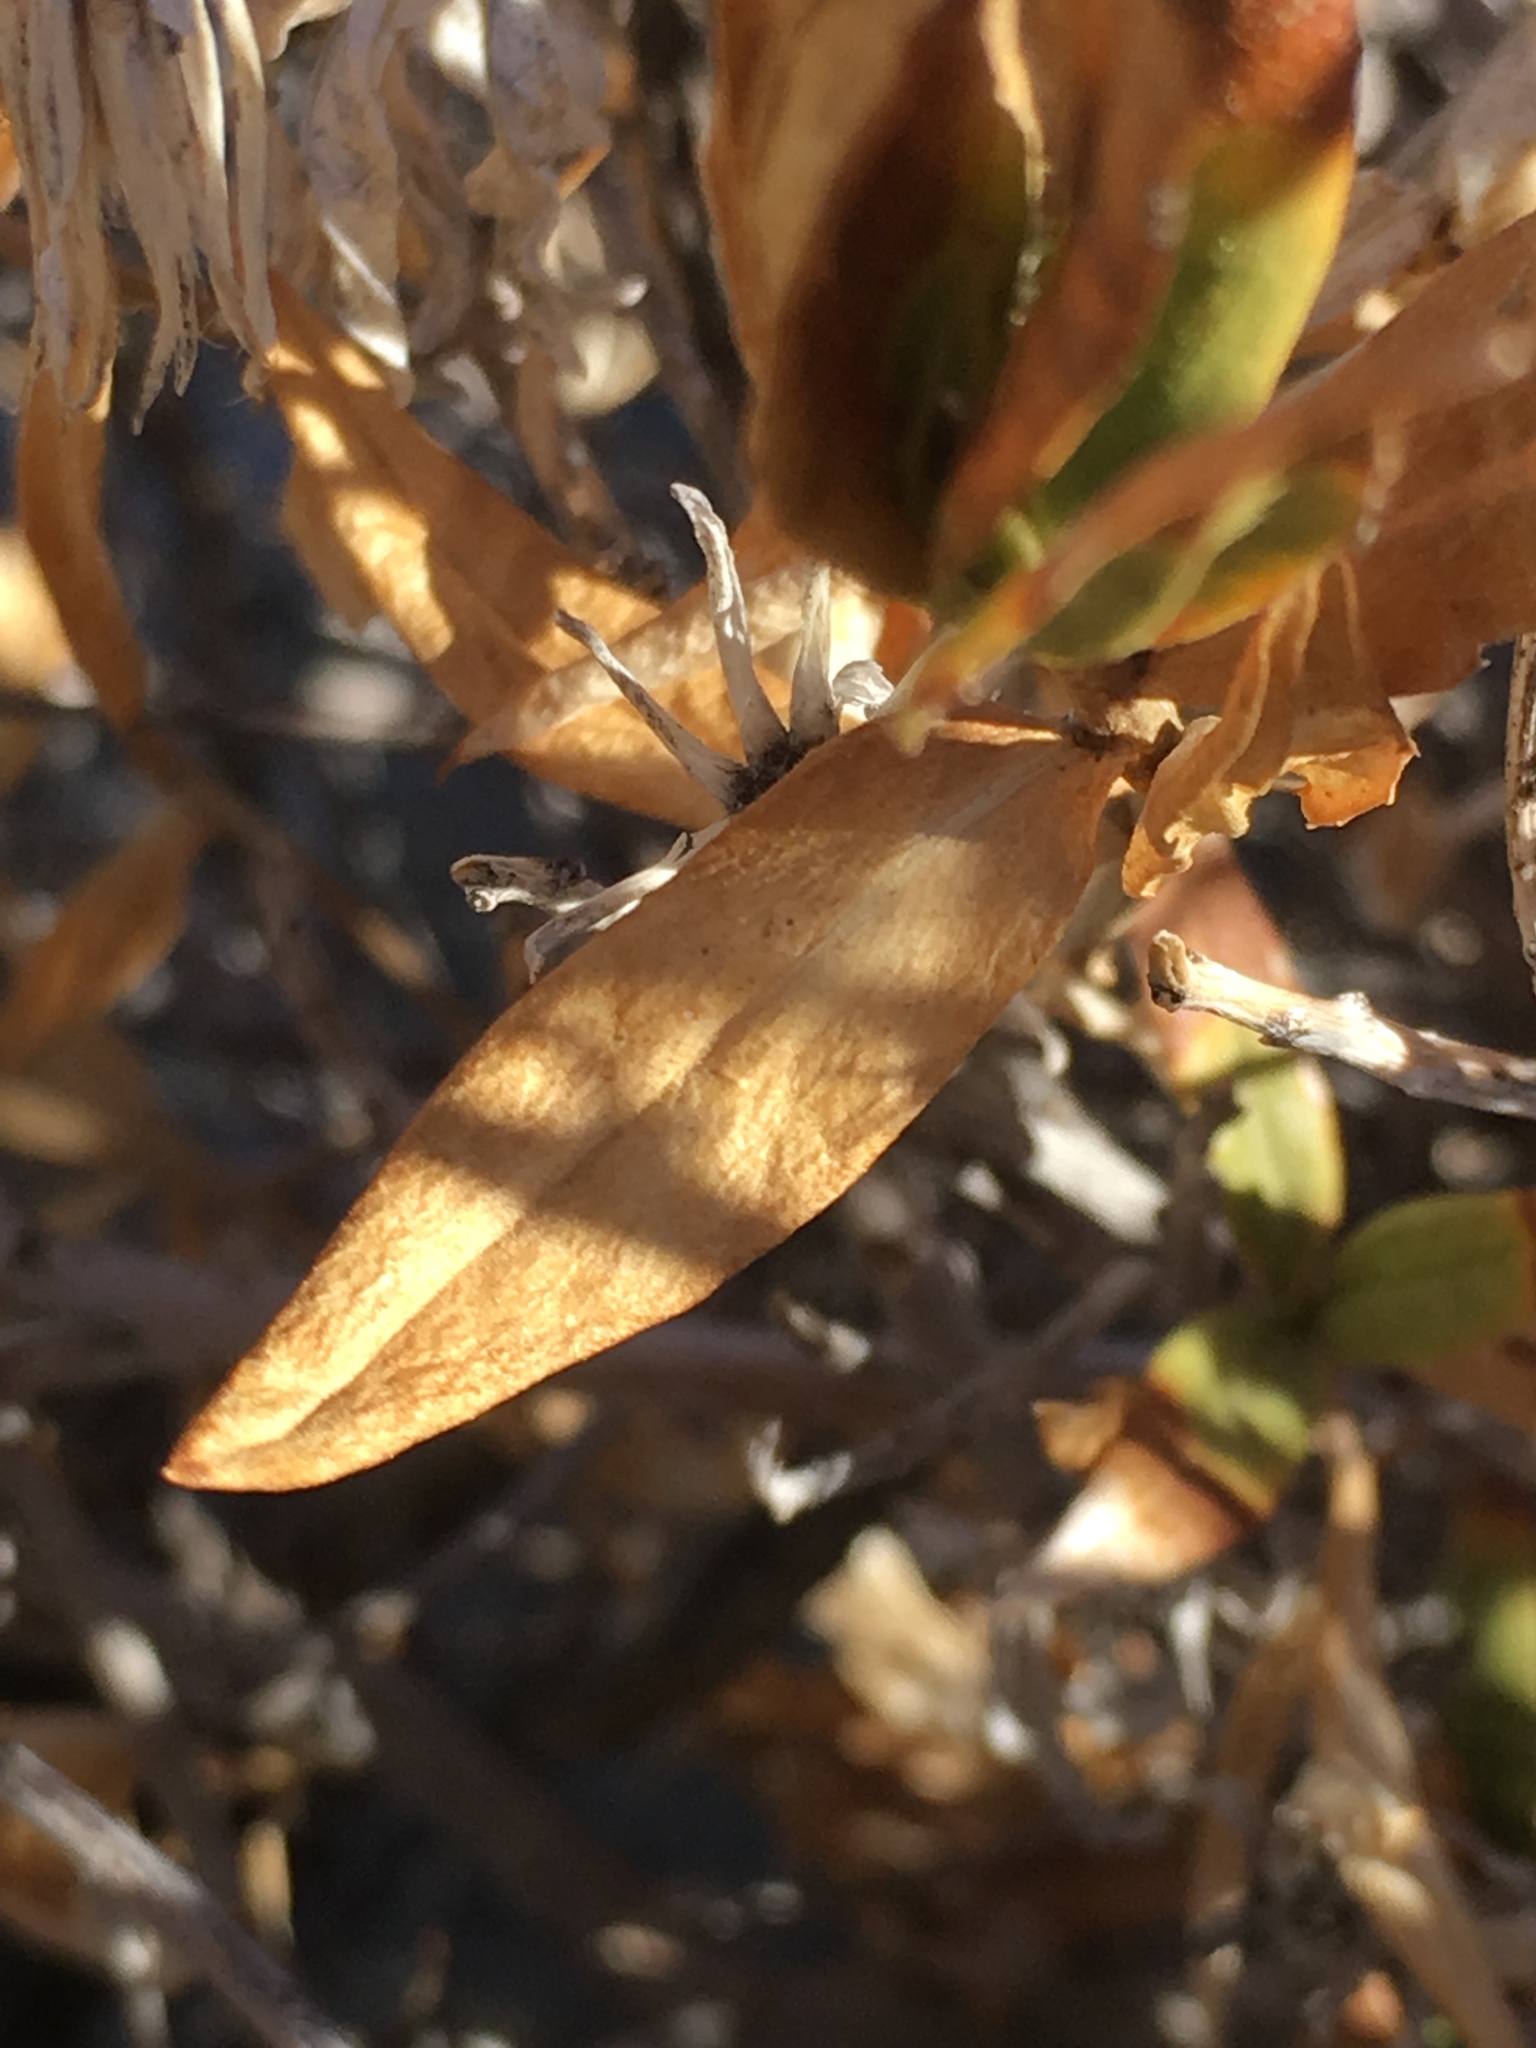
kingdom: Plantae
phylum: Tracheophyta
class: Magnoliopsida
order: Asterales
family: Asteraceae
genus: Trixis
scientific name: Trixis californica
